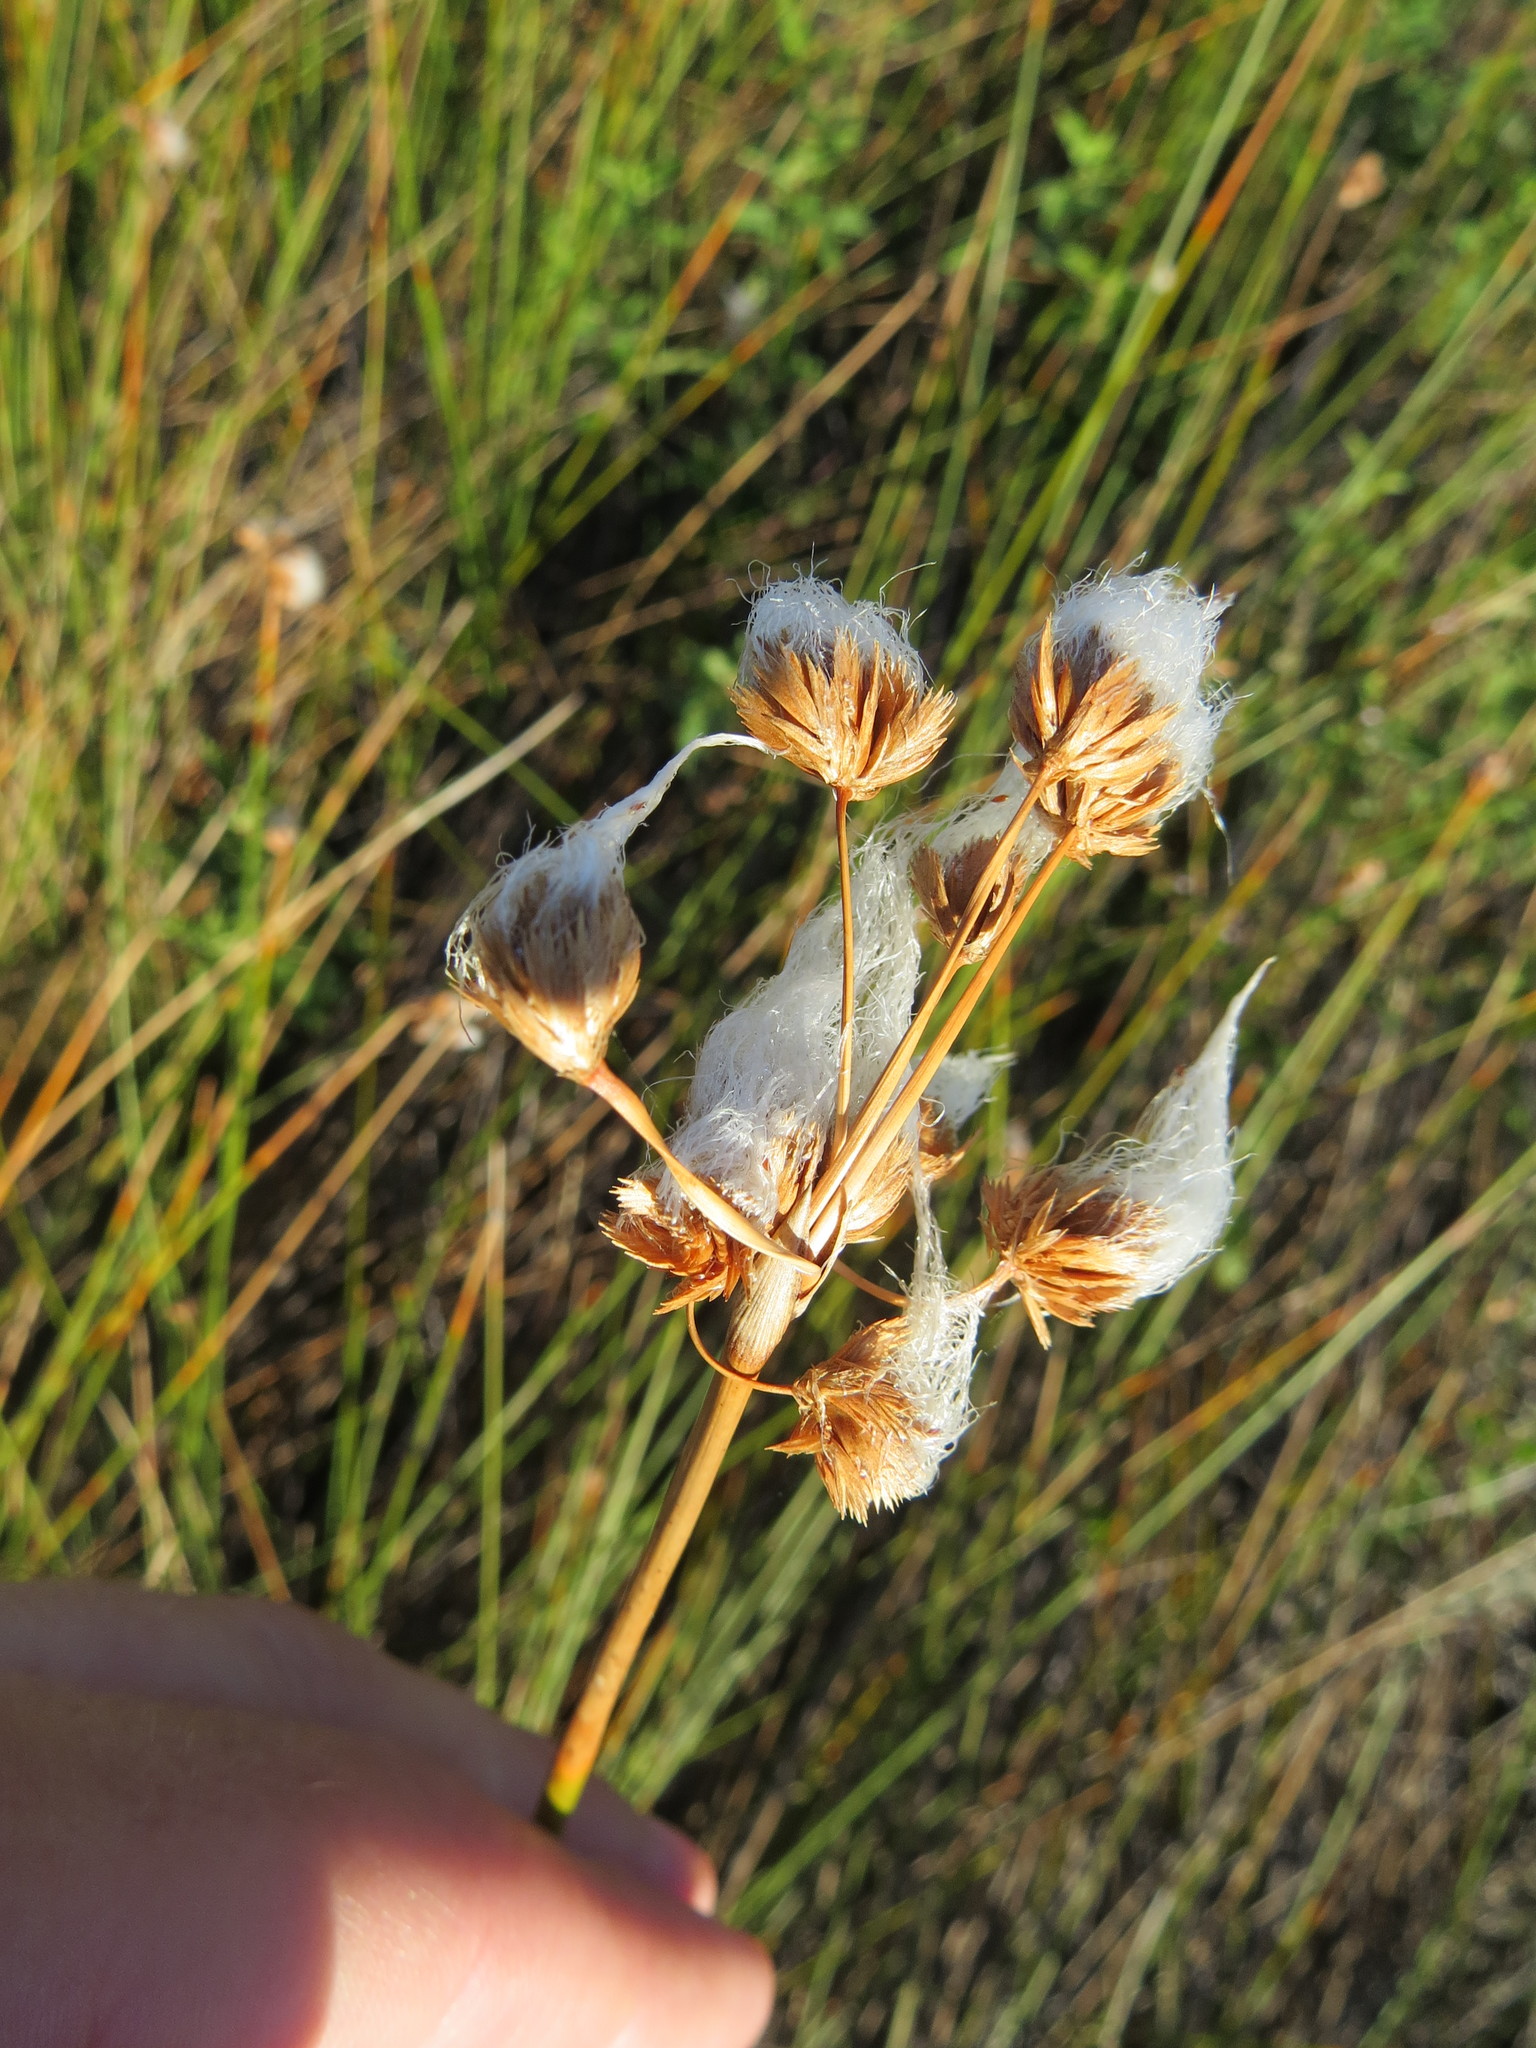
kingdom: Plantae
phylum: Tracheophyta
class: Liliopsida
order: Poales
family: Cyperaceae
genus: Cyperus
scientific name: Cyperus trigynus
